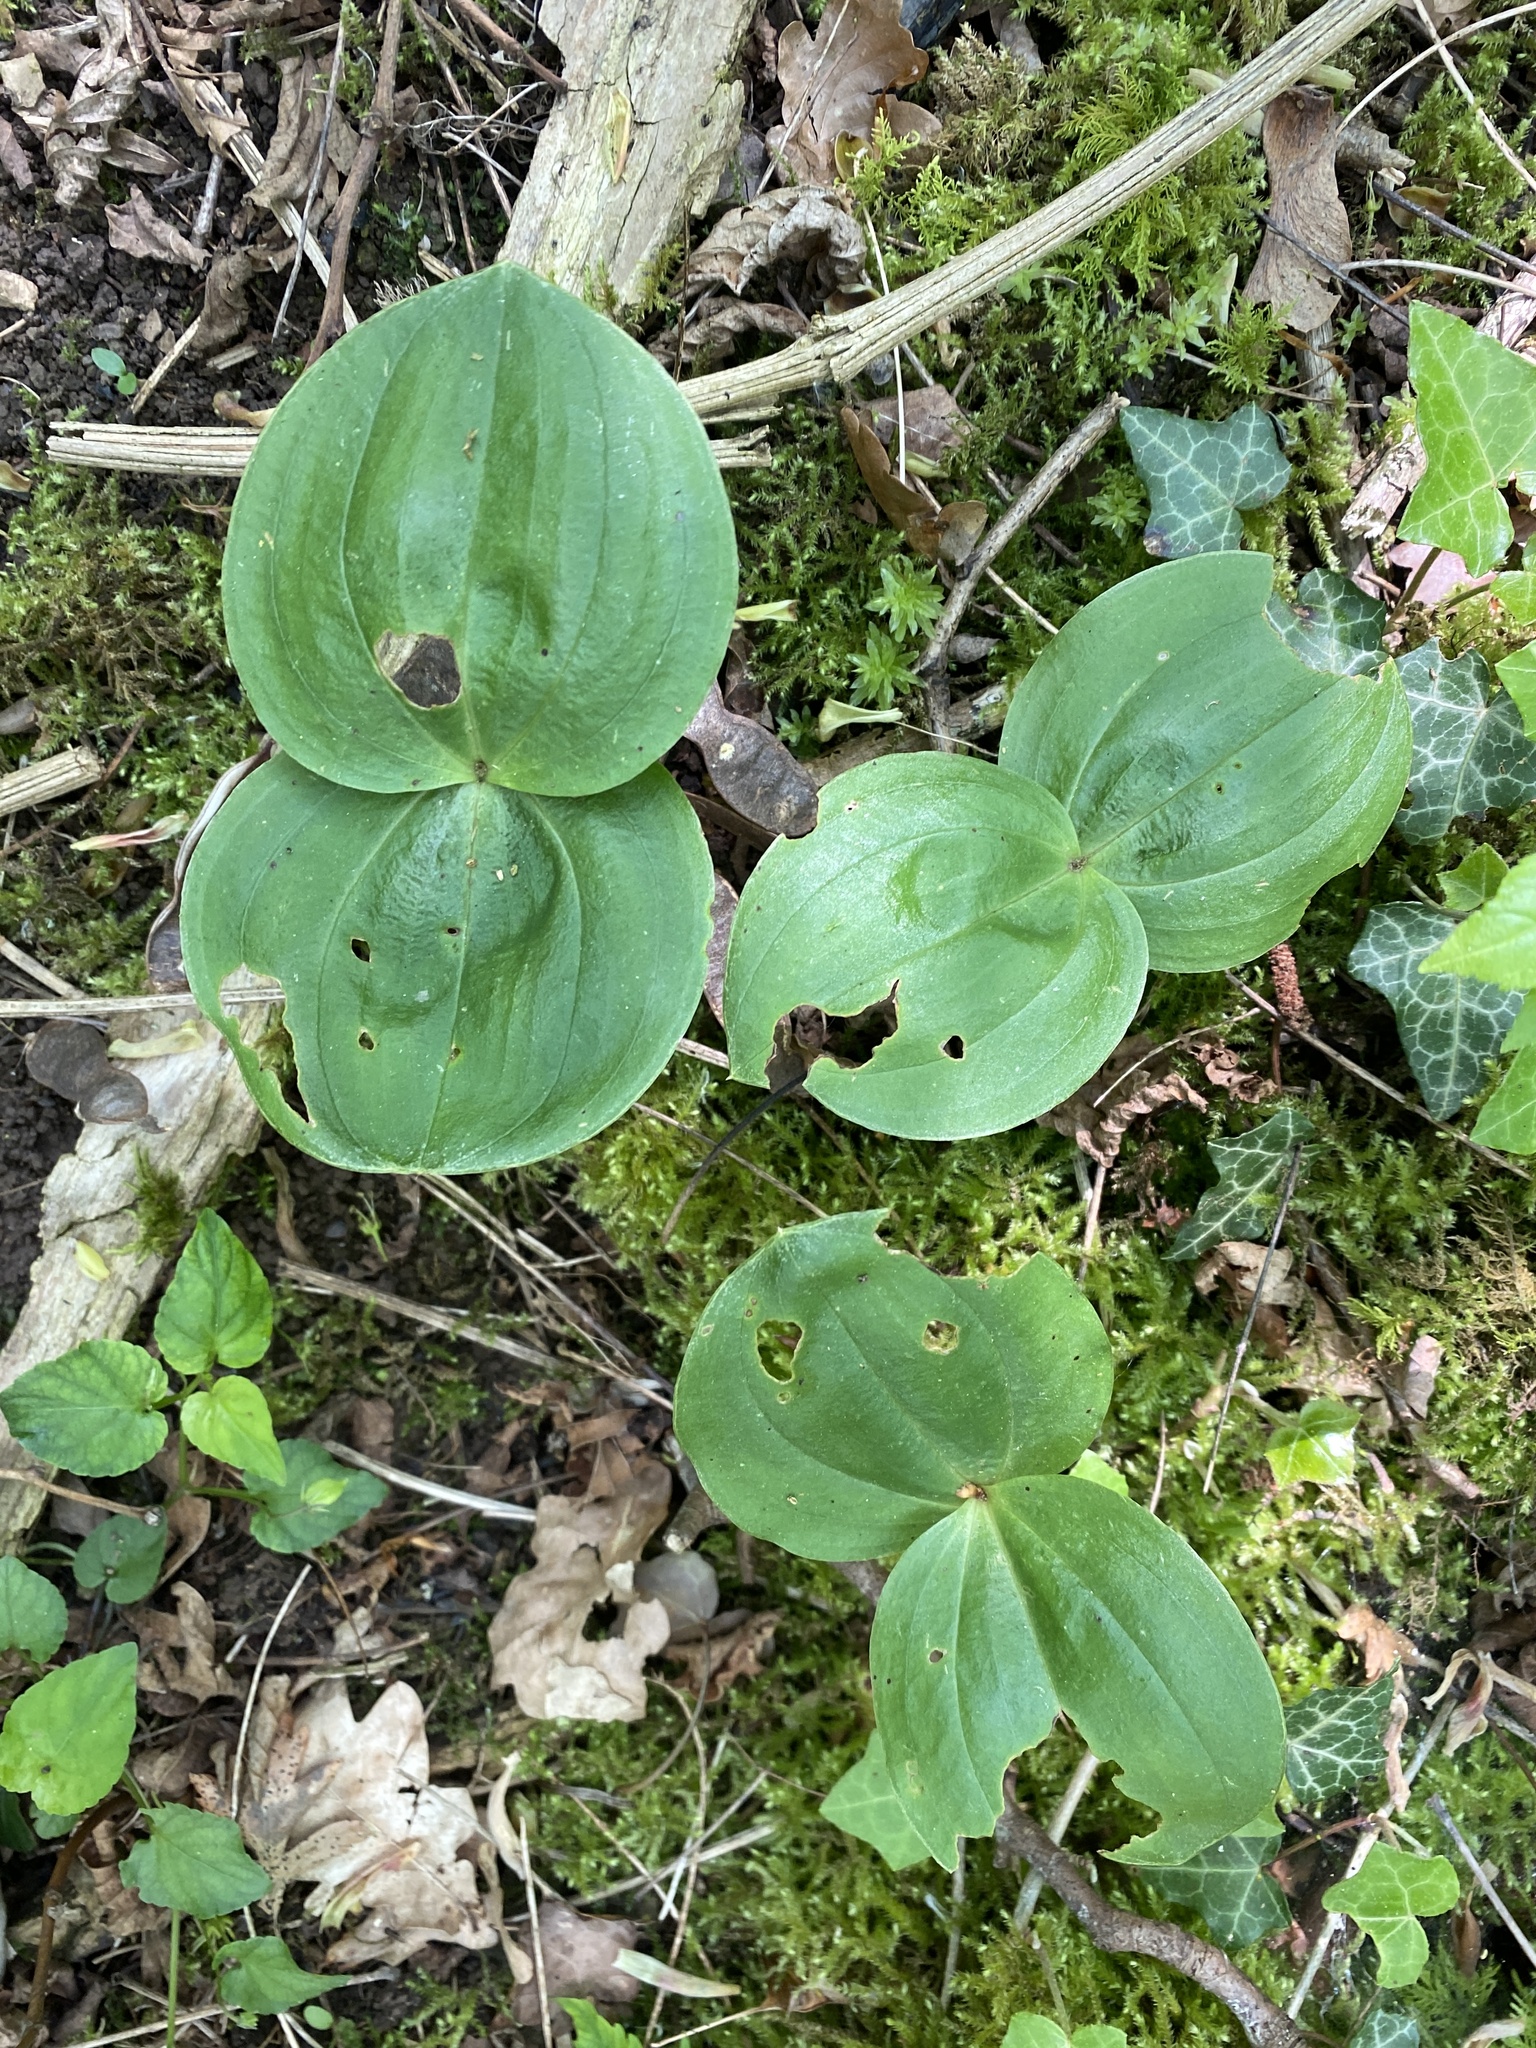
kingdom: Plantae
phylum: Tracheophyta
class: Liliopsida
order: Asparagales
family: Orchidaceae
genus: Neottia
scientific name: Neottia ovata
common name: Common twayblade
